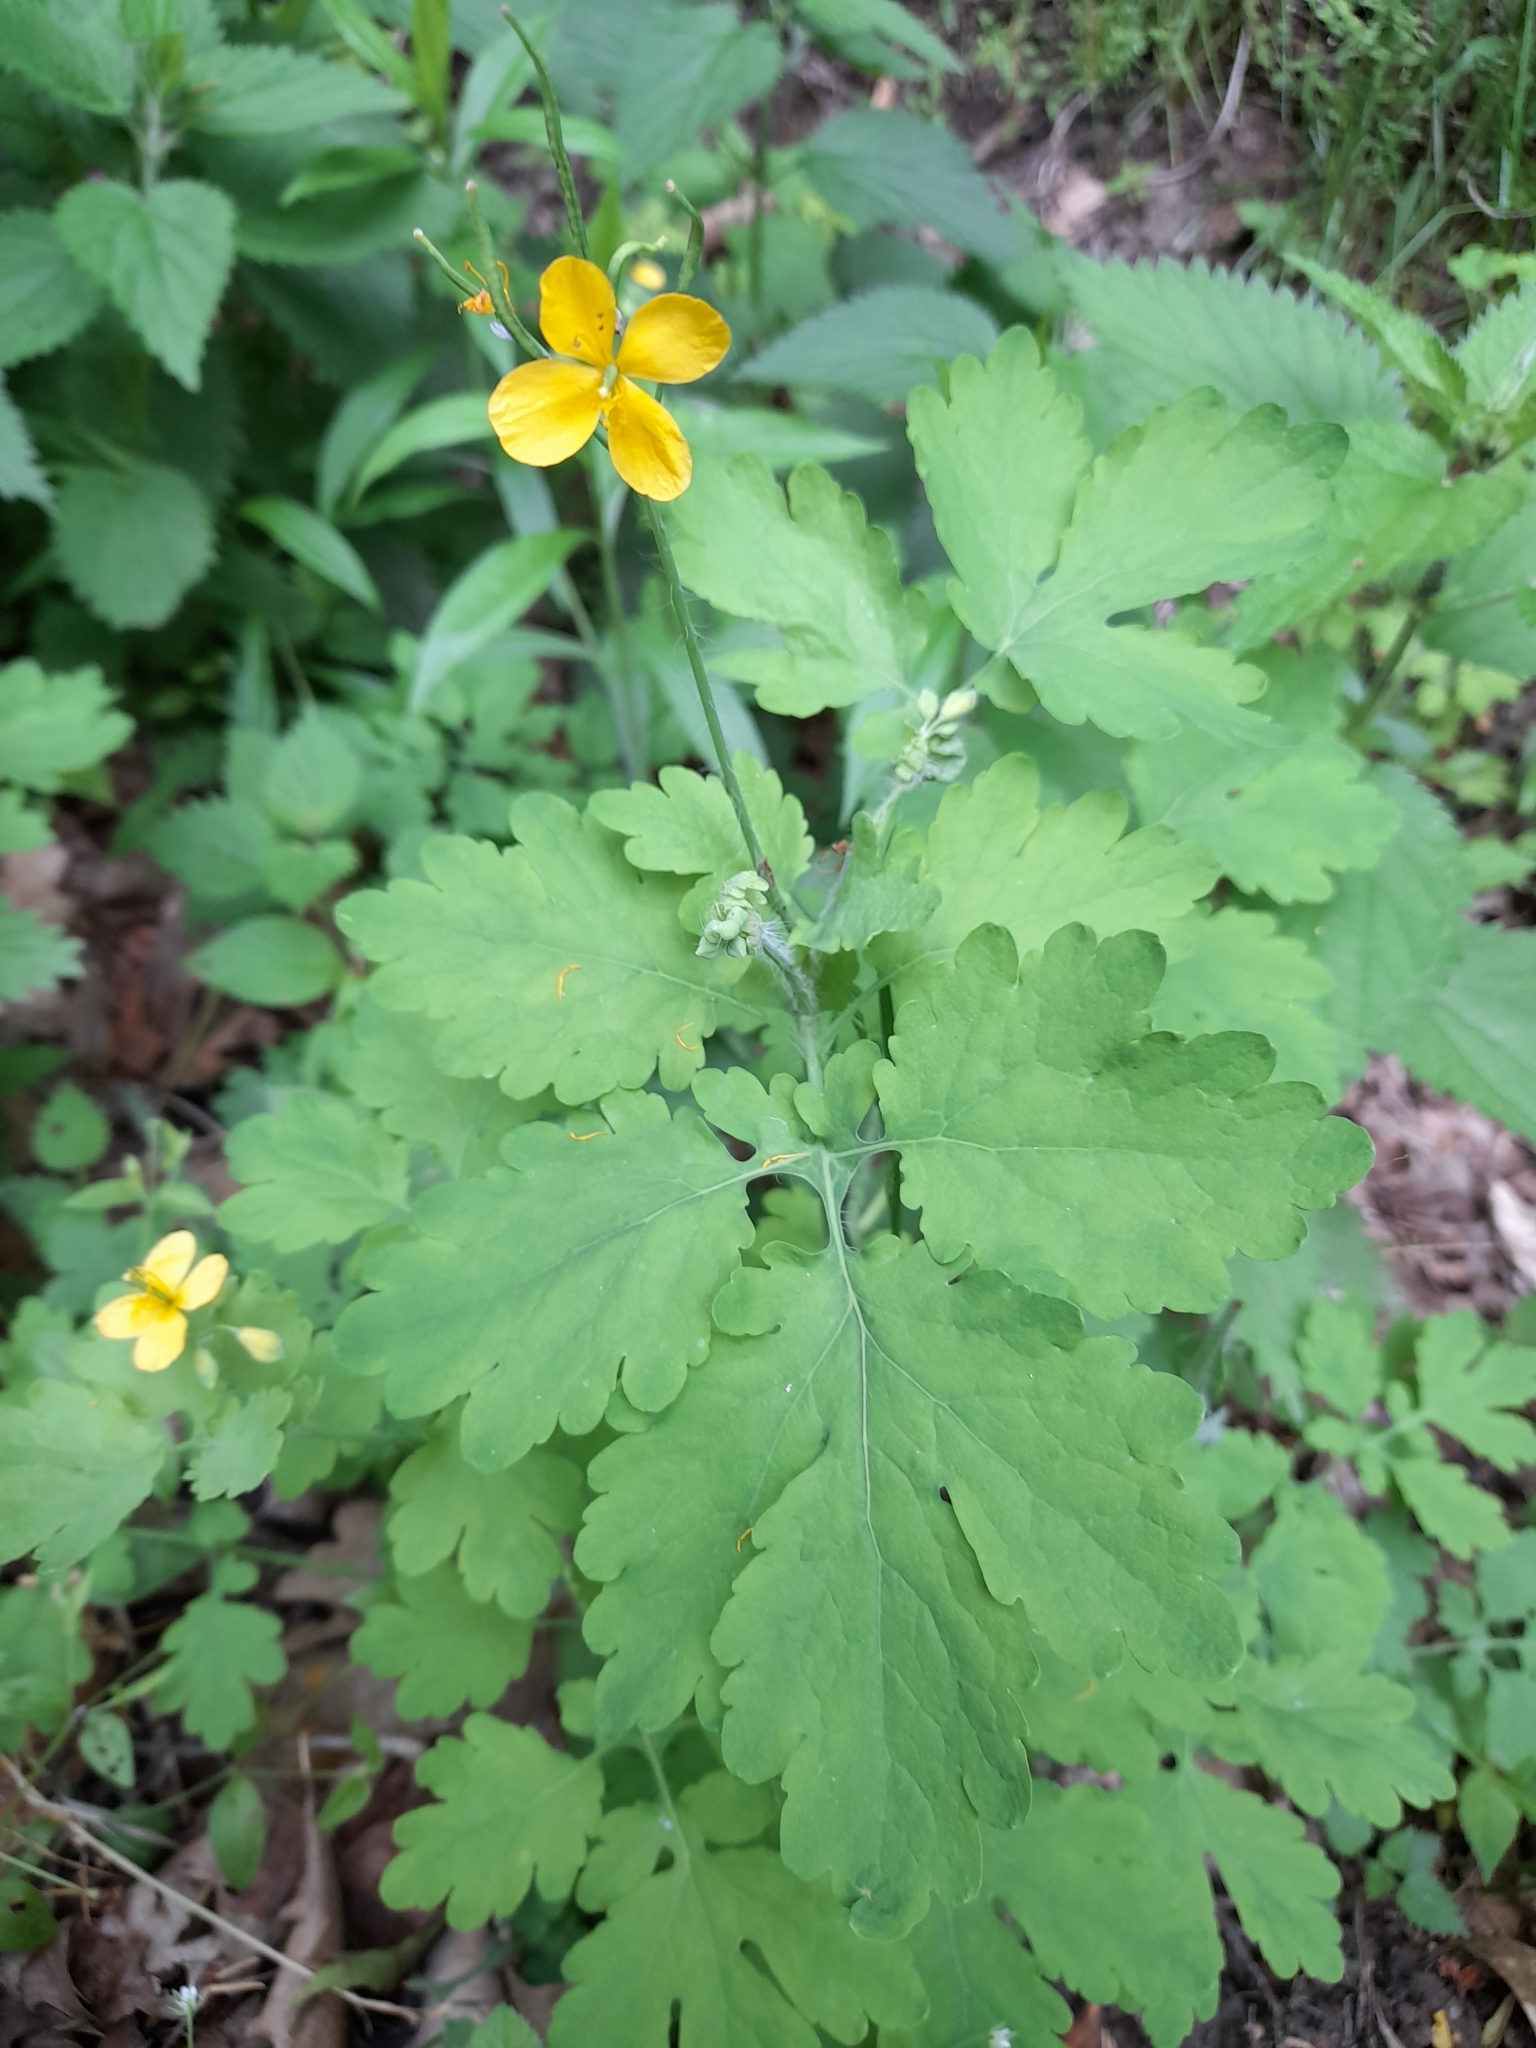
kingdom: Plantae
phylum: Tracheophyta
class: Magnoliopsida
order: Ranunculales
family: Papaveraceae
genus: Chelidonium
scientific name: Chelidonium majus
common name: Greater celandine
